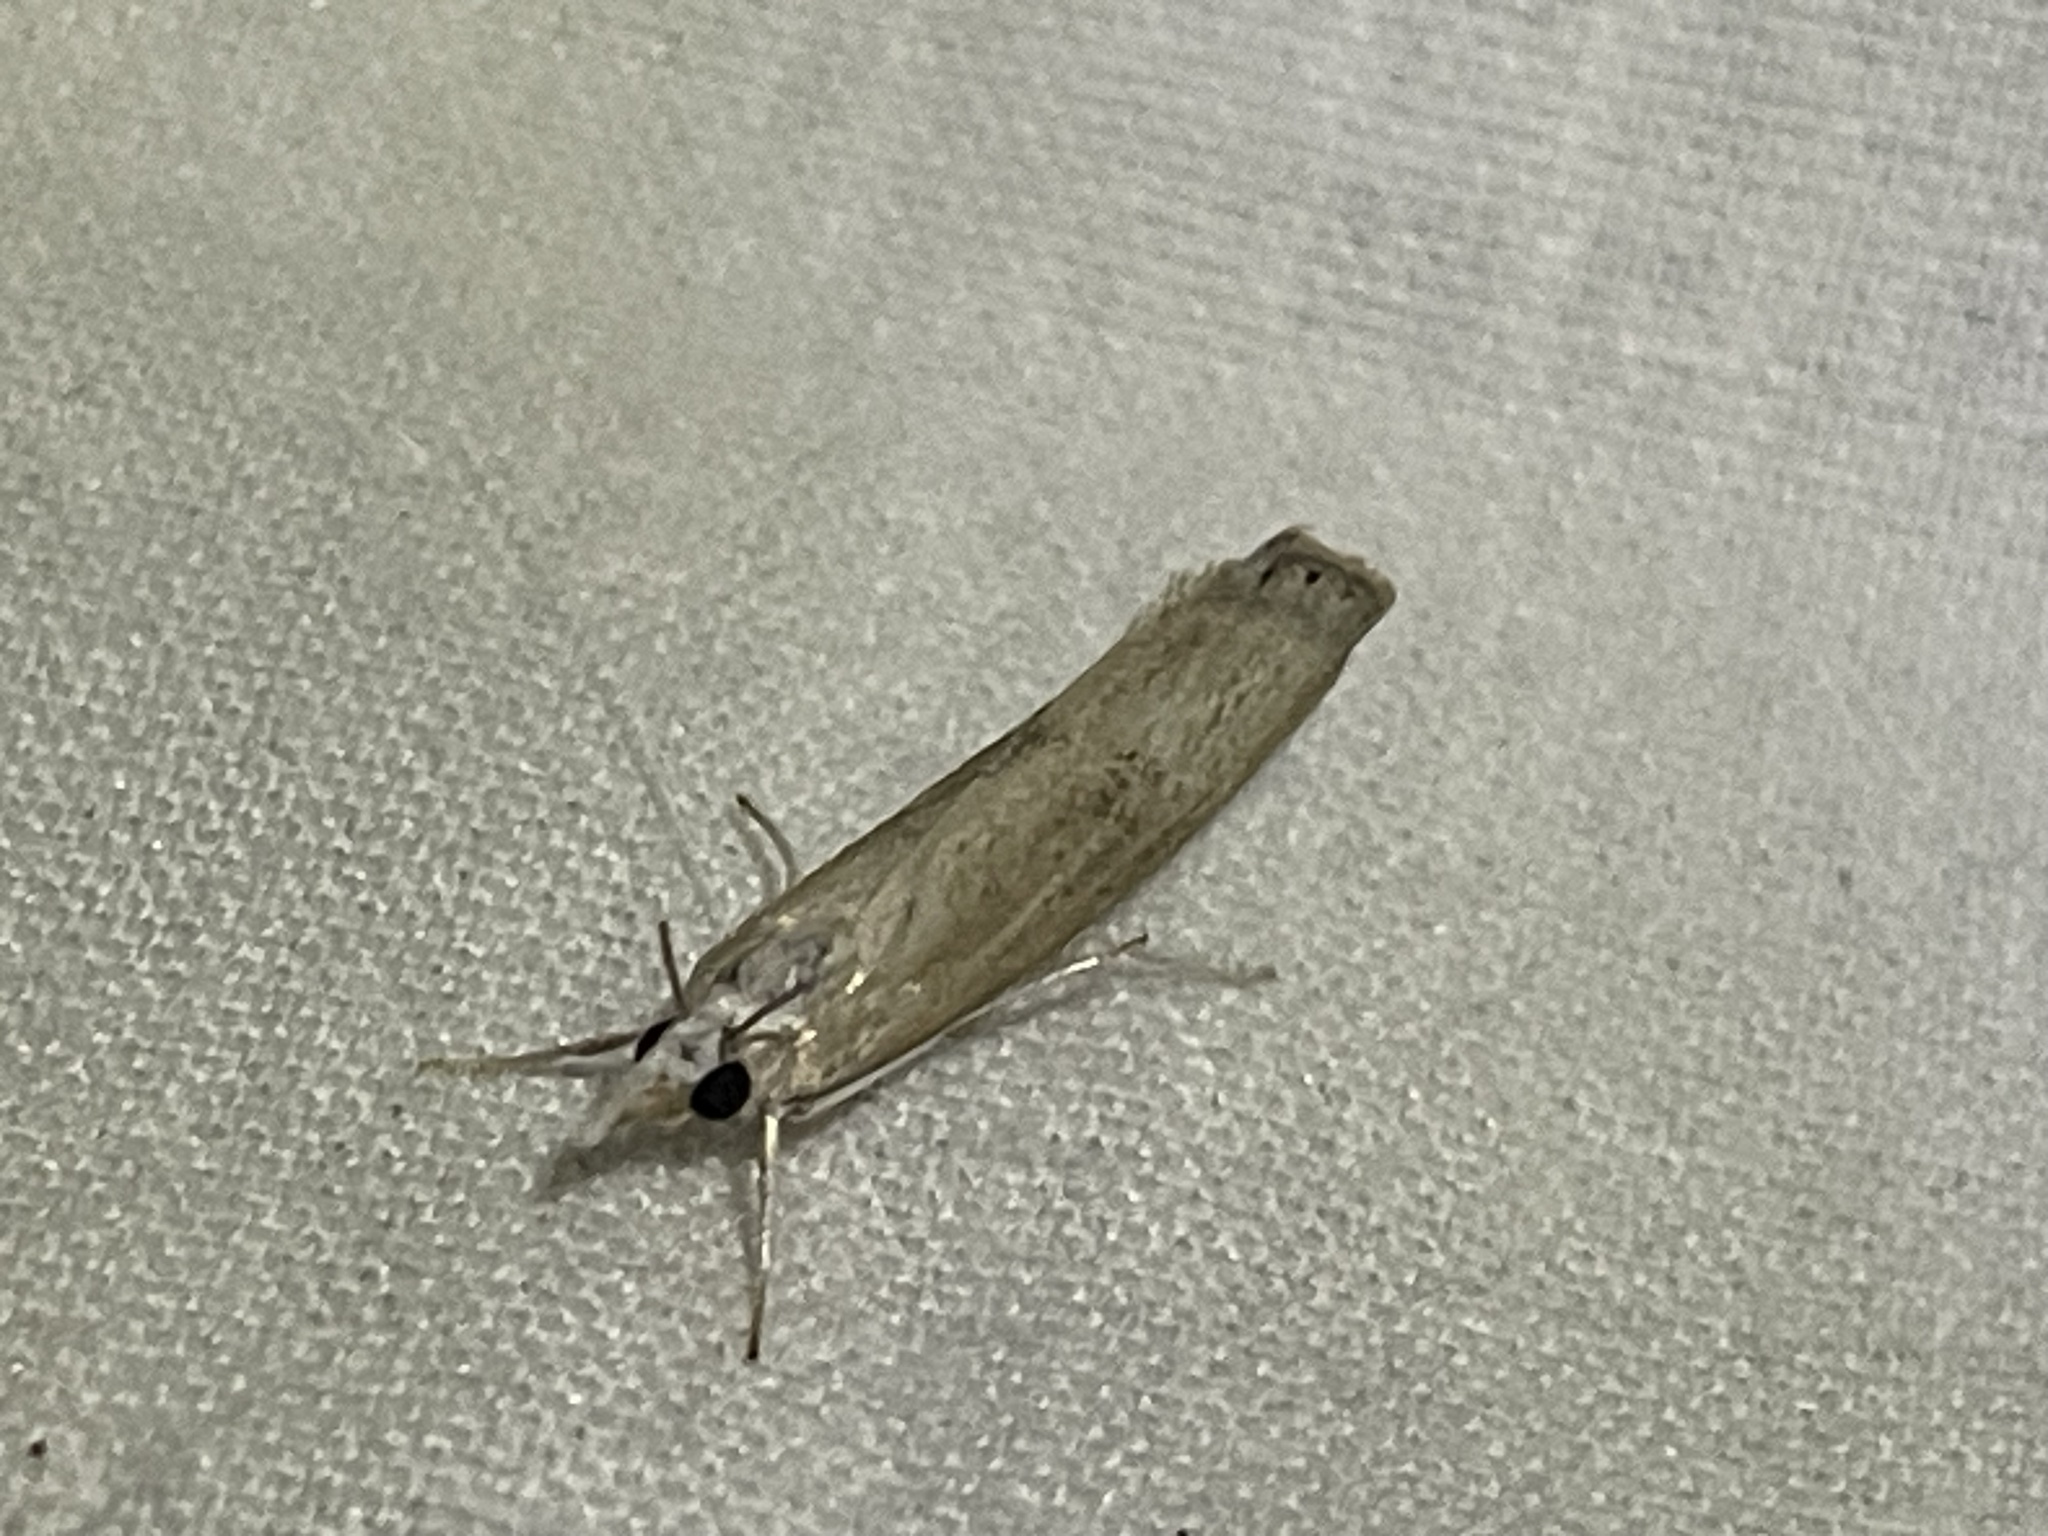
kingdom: Animalia
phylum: Arthropoda
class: Insecta
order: Lepidoptera
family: Crambidae
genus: Parapediasia
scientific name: Parapediasia teterellus
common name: Bluegrass webworm moth
